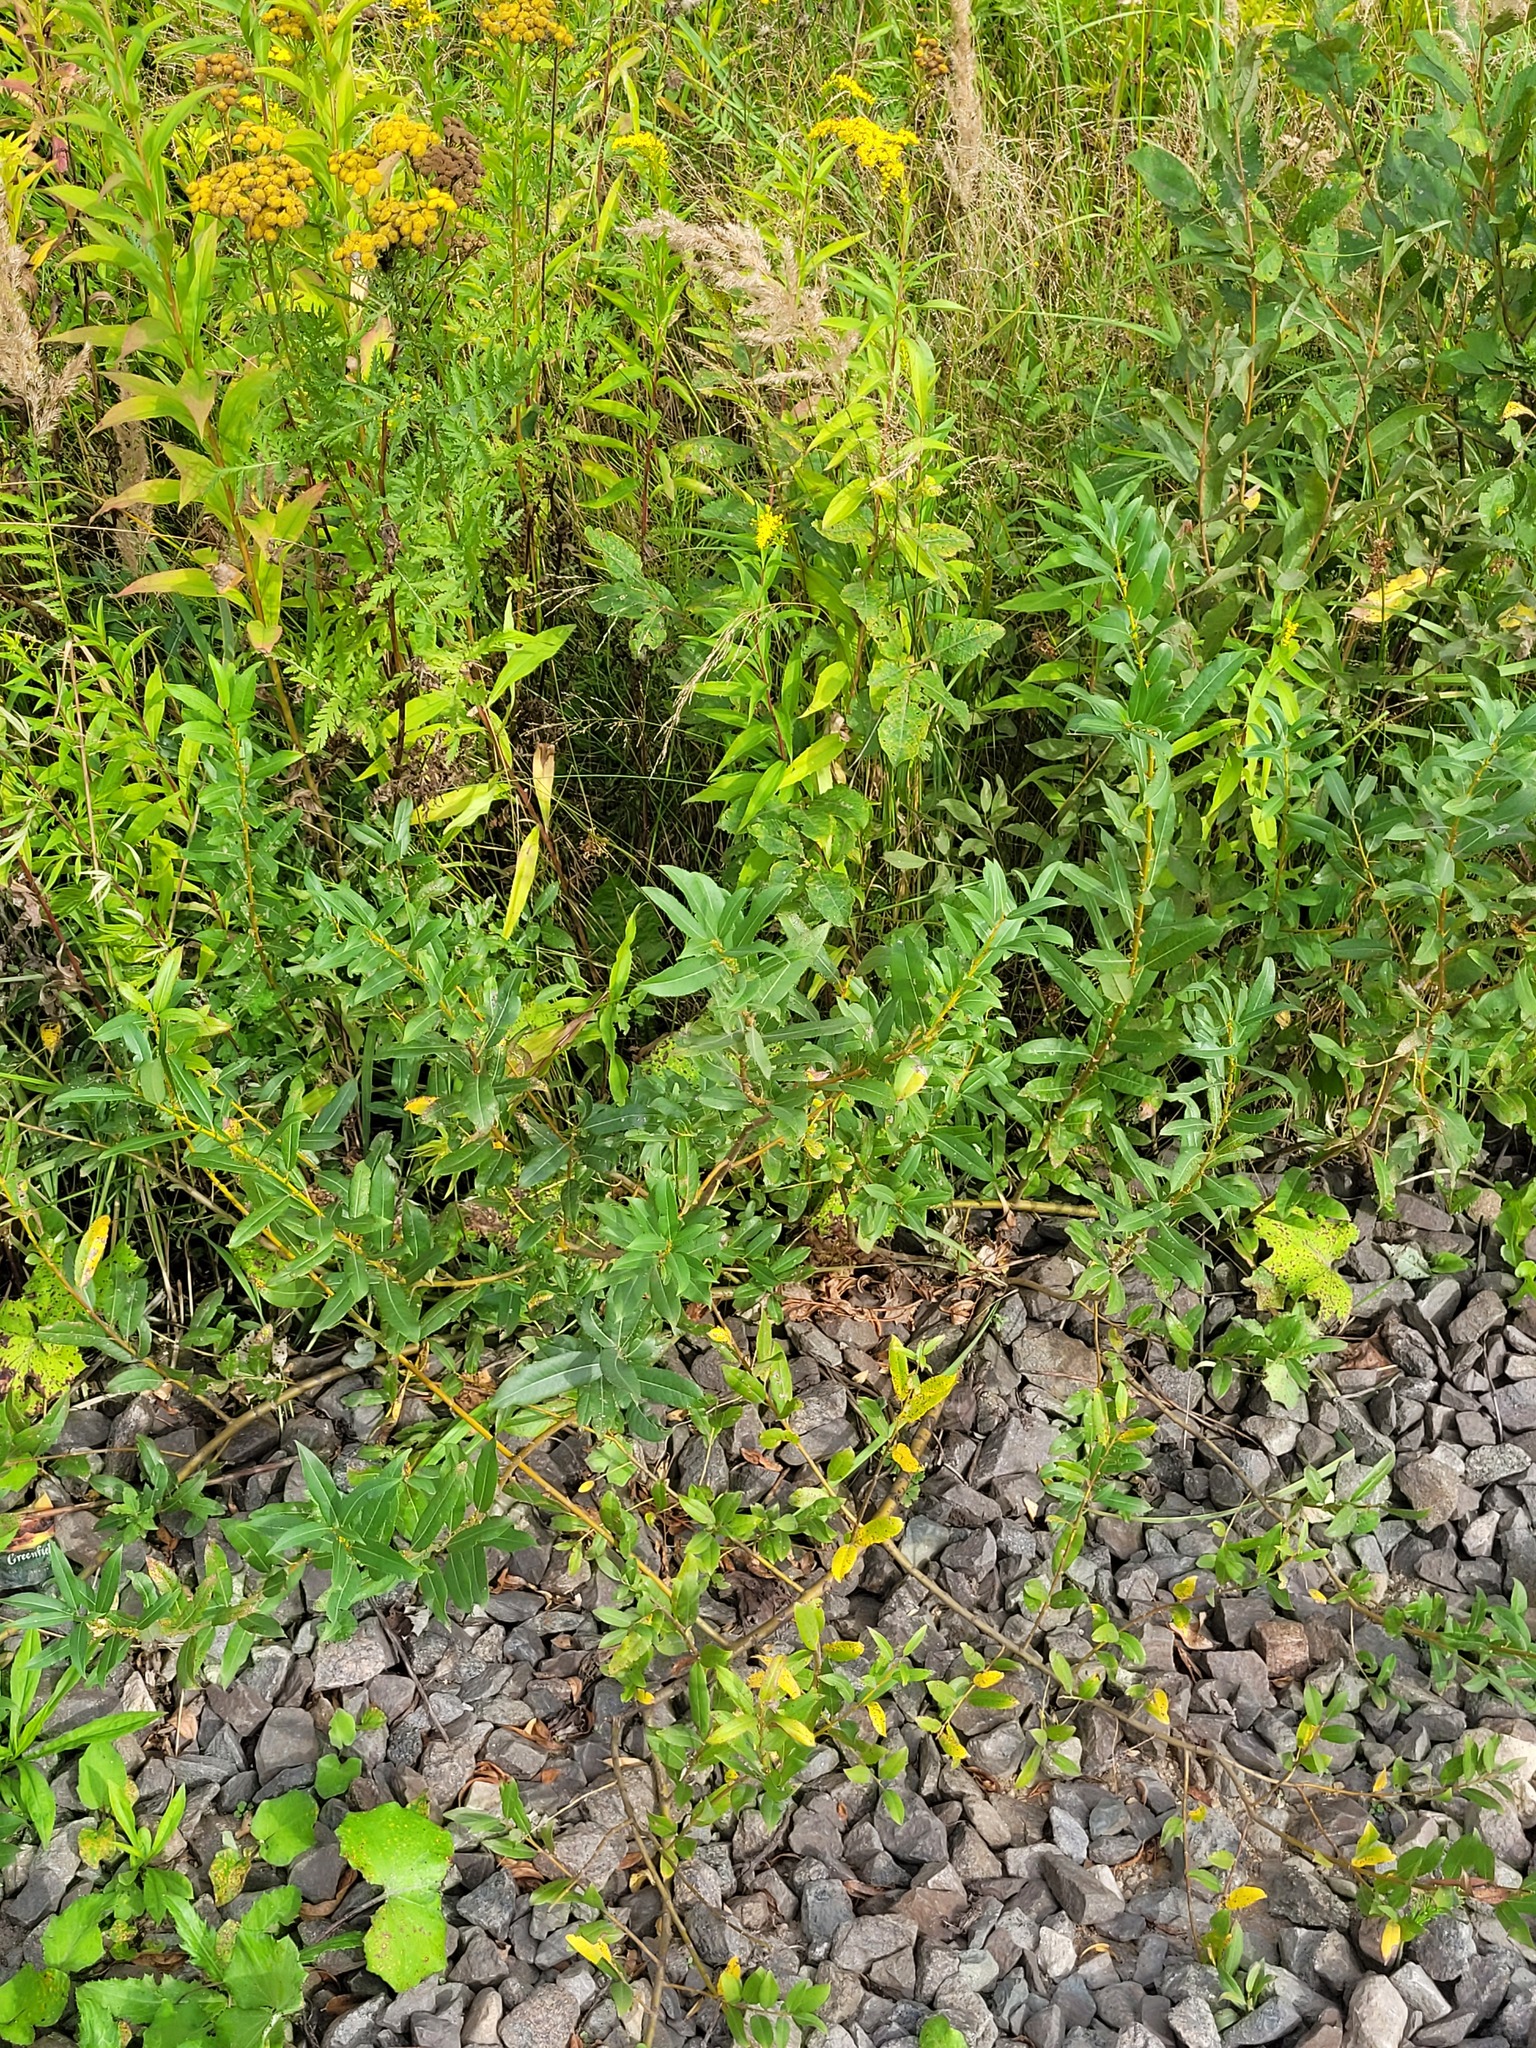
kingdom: Plantae
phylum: Tracheophyta
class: Magnoliopsida
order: Malpighiales
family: Salicaceae
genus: Salix
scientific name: Salix triandra
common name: Almond willow
